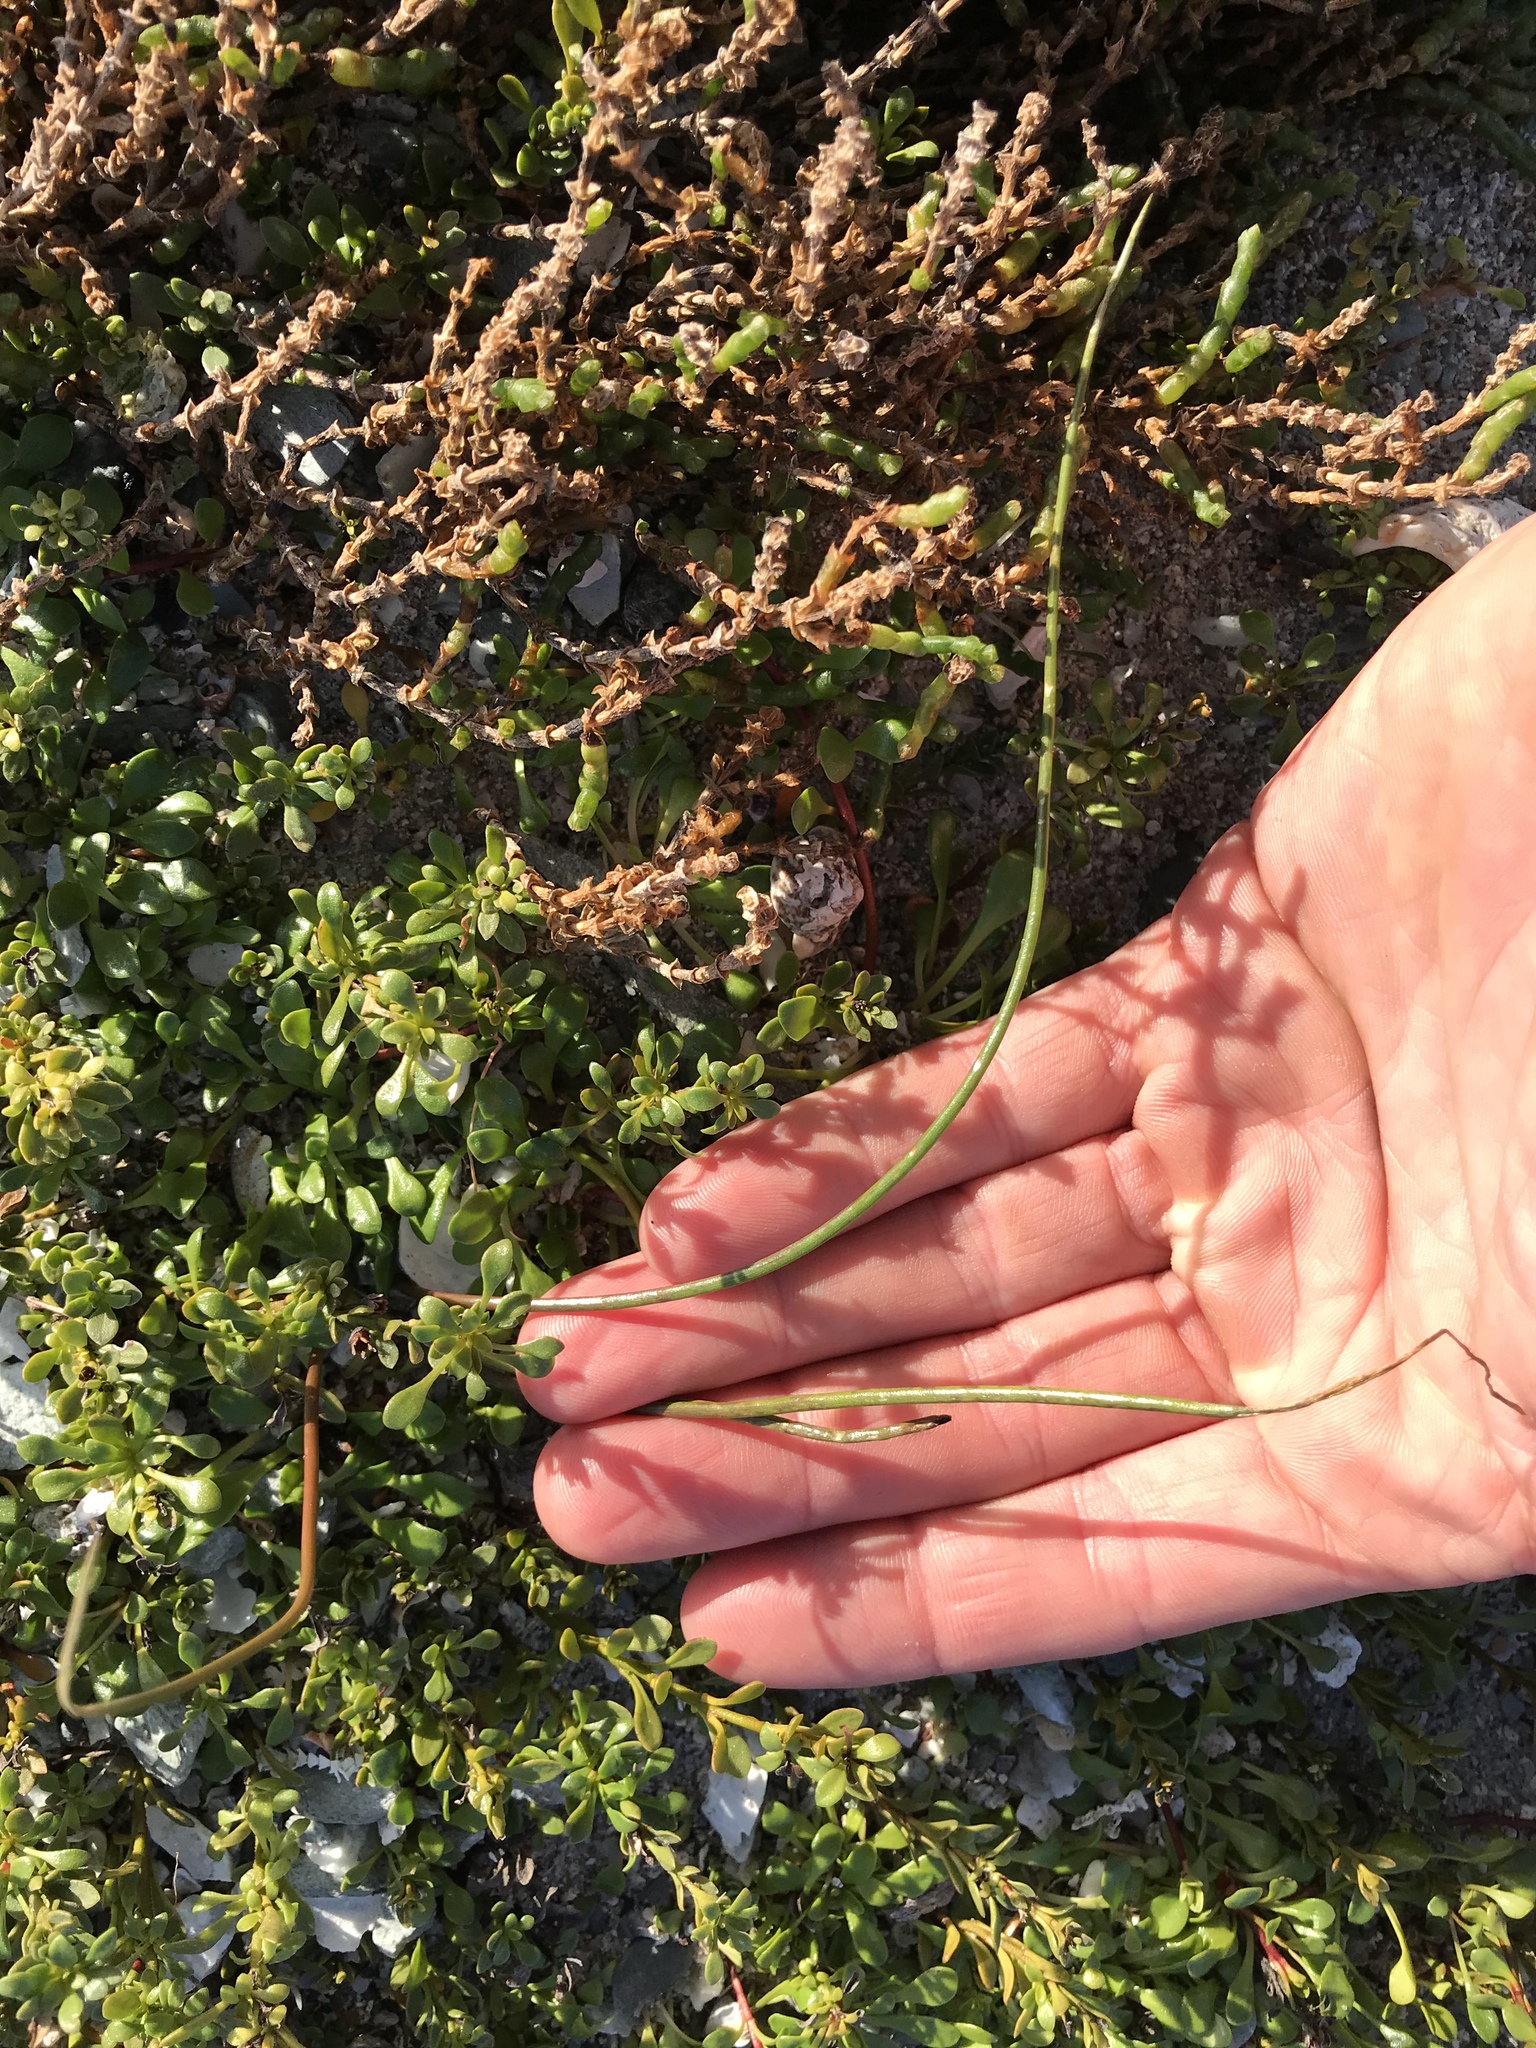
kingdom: Plantae
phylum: Tracheophyta
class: Liliopsida
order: Alismatales
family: Juncaginaceae
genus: Triglochin
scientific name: Triglochin striata
